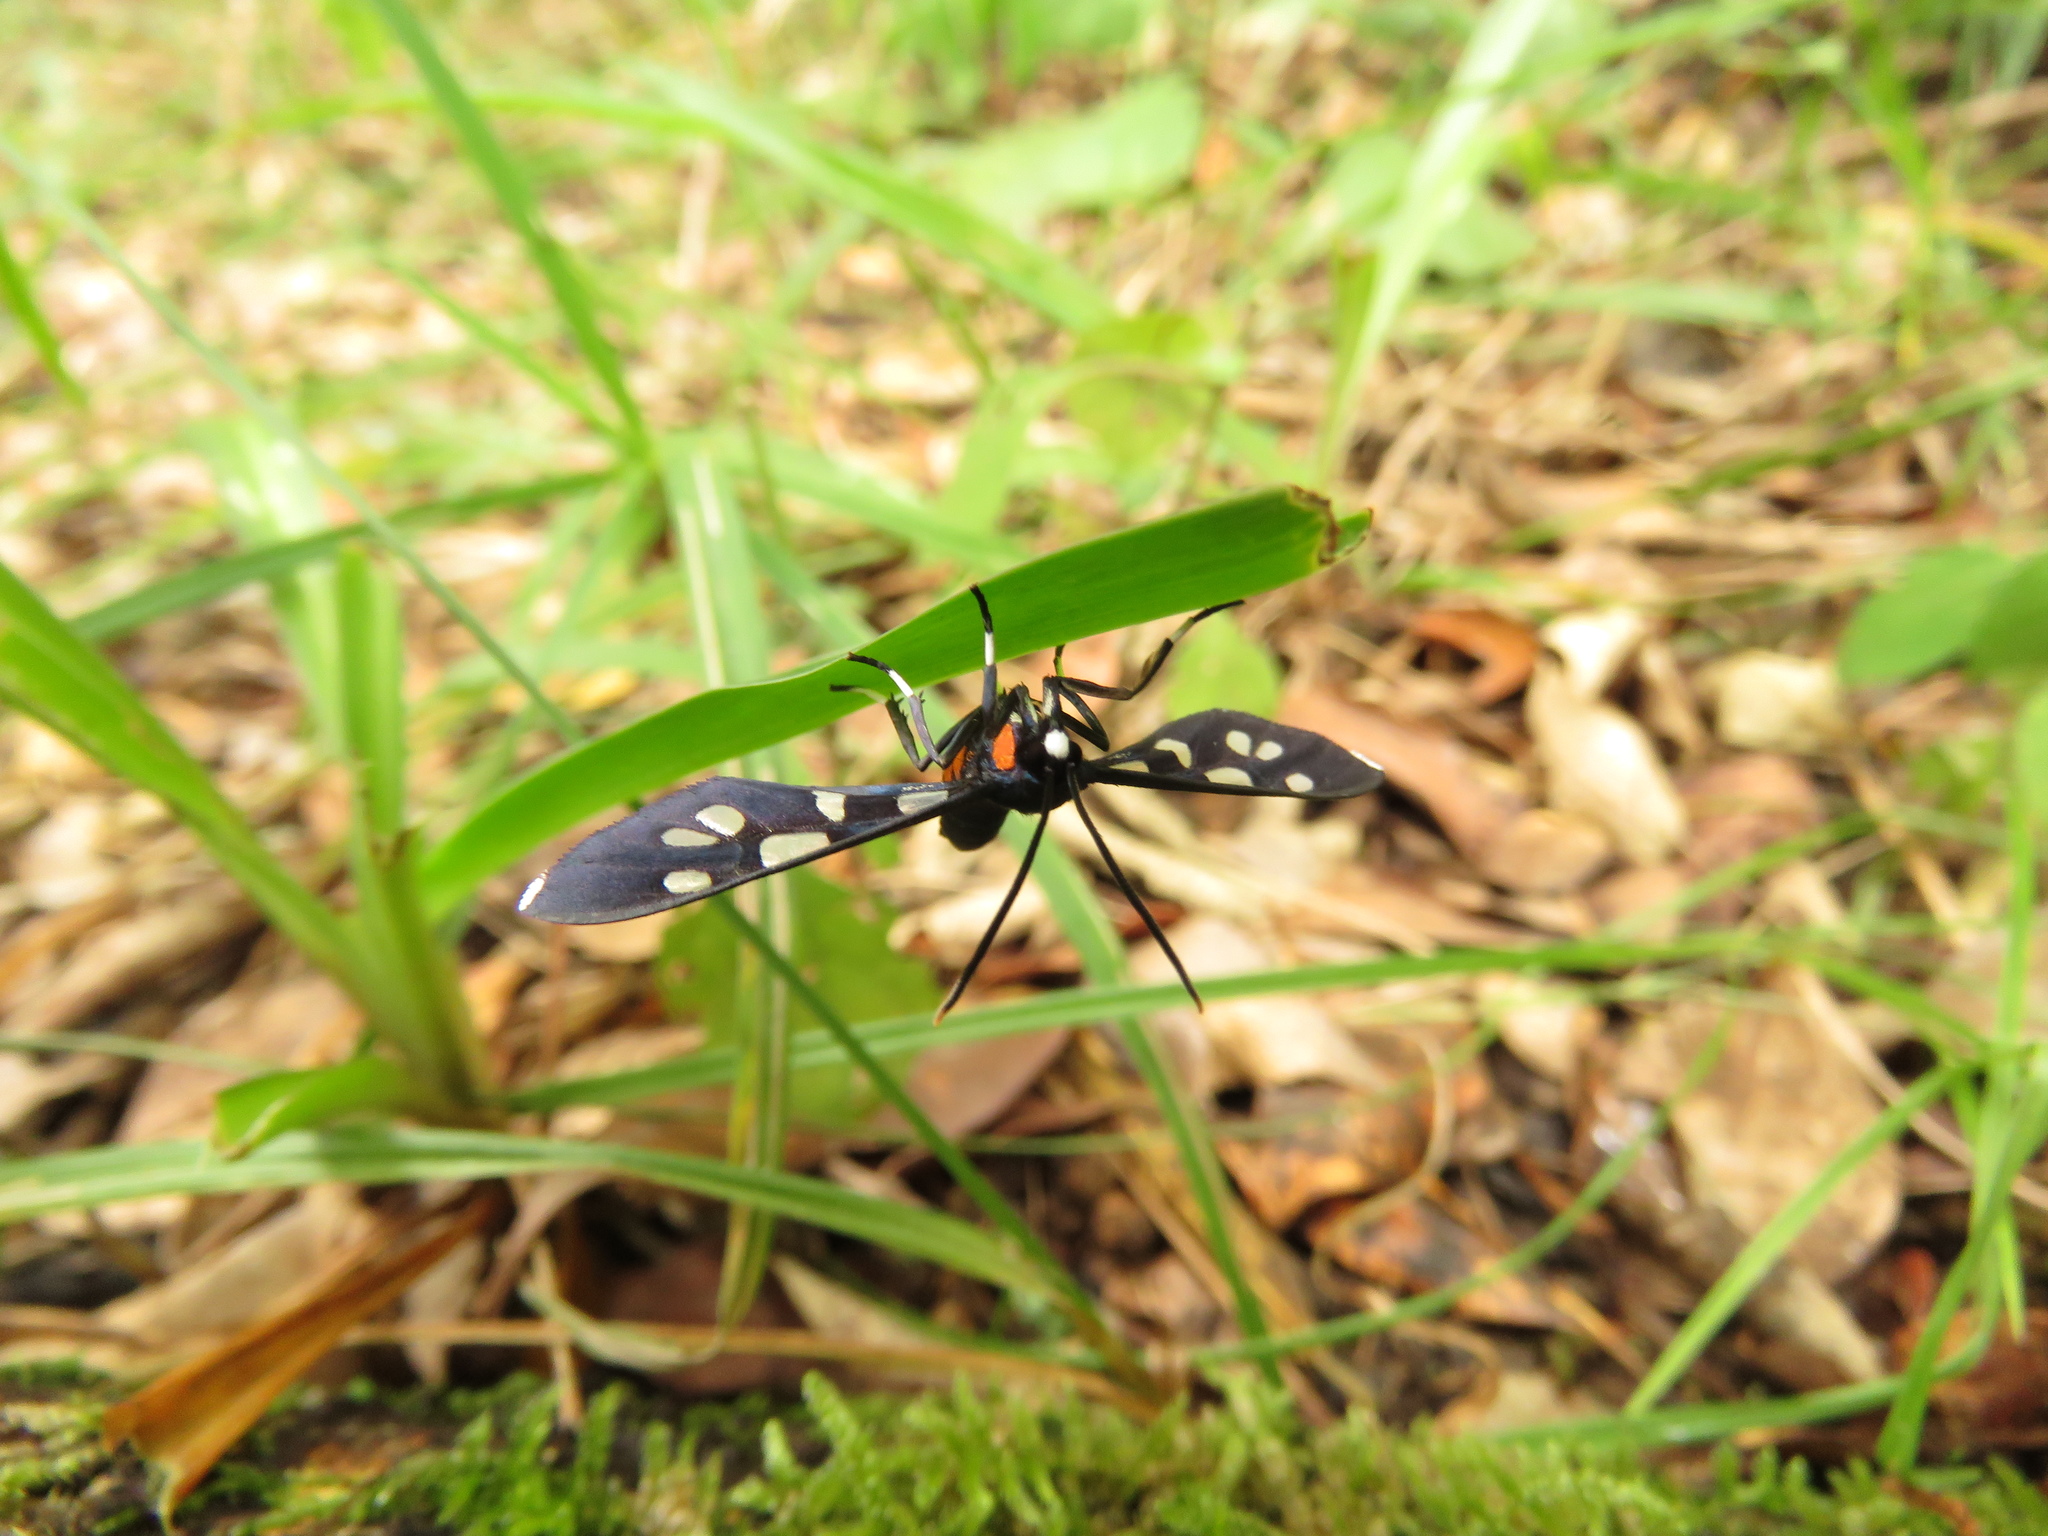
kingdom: Animalia
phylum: Arthropoda
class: Insecta
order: Lepidoptera
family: Erebidae
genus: Amata
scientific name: Amata kuhlweini
